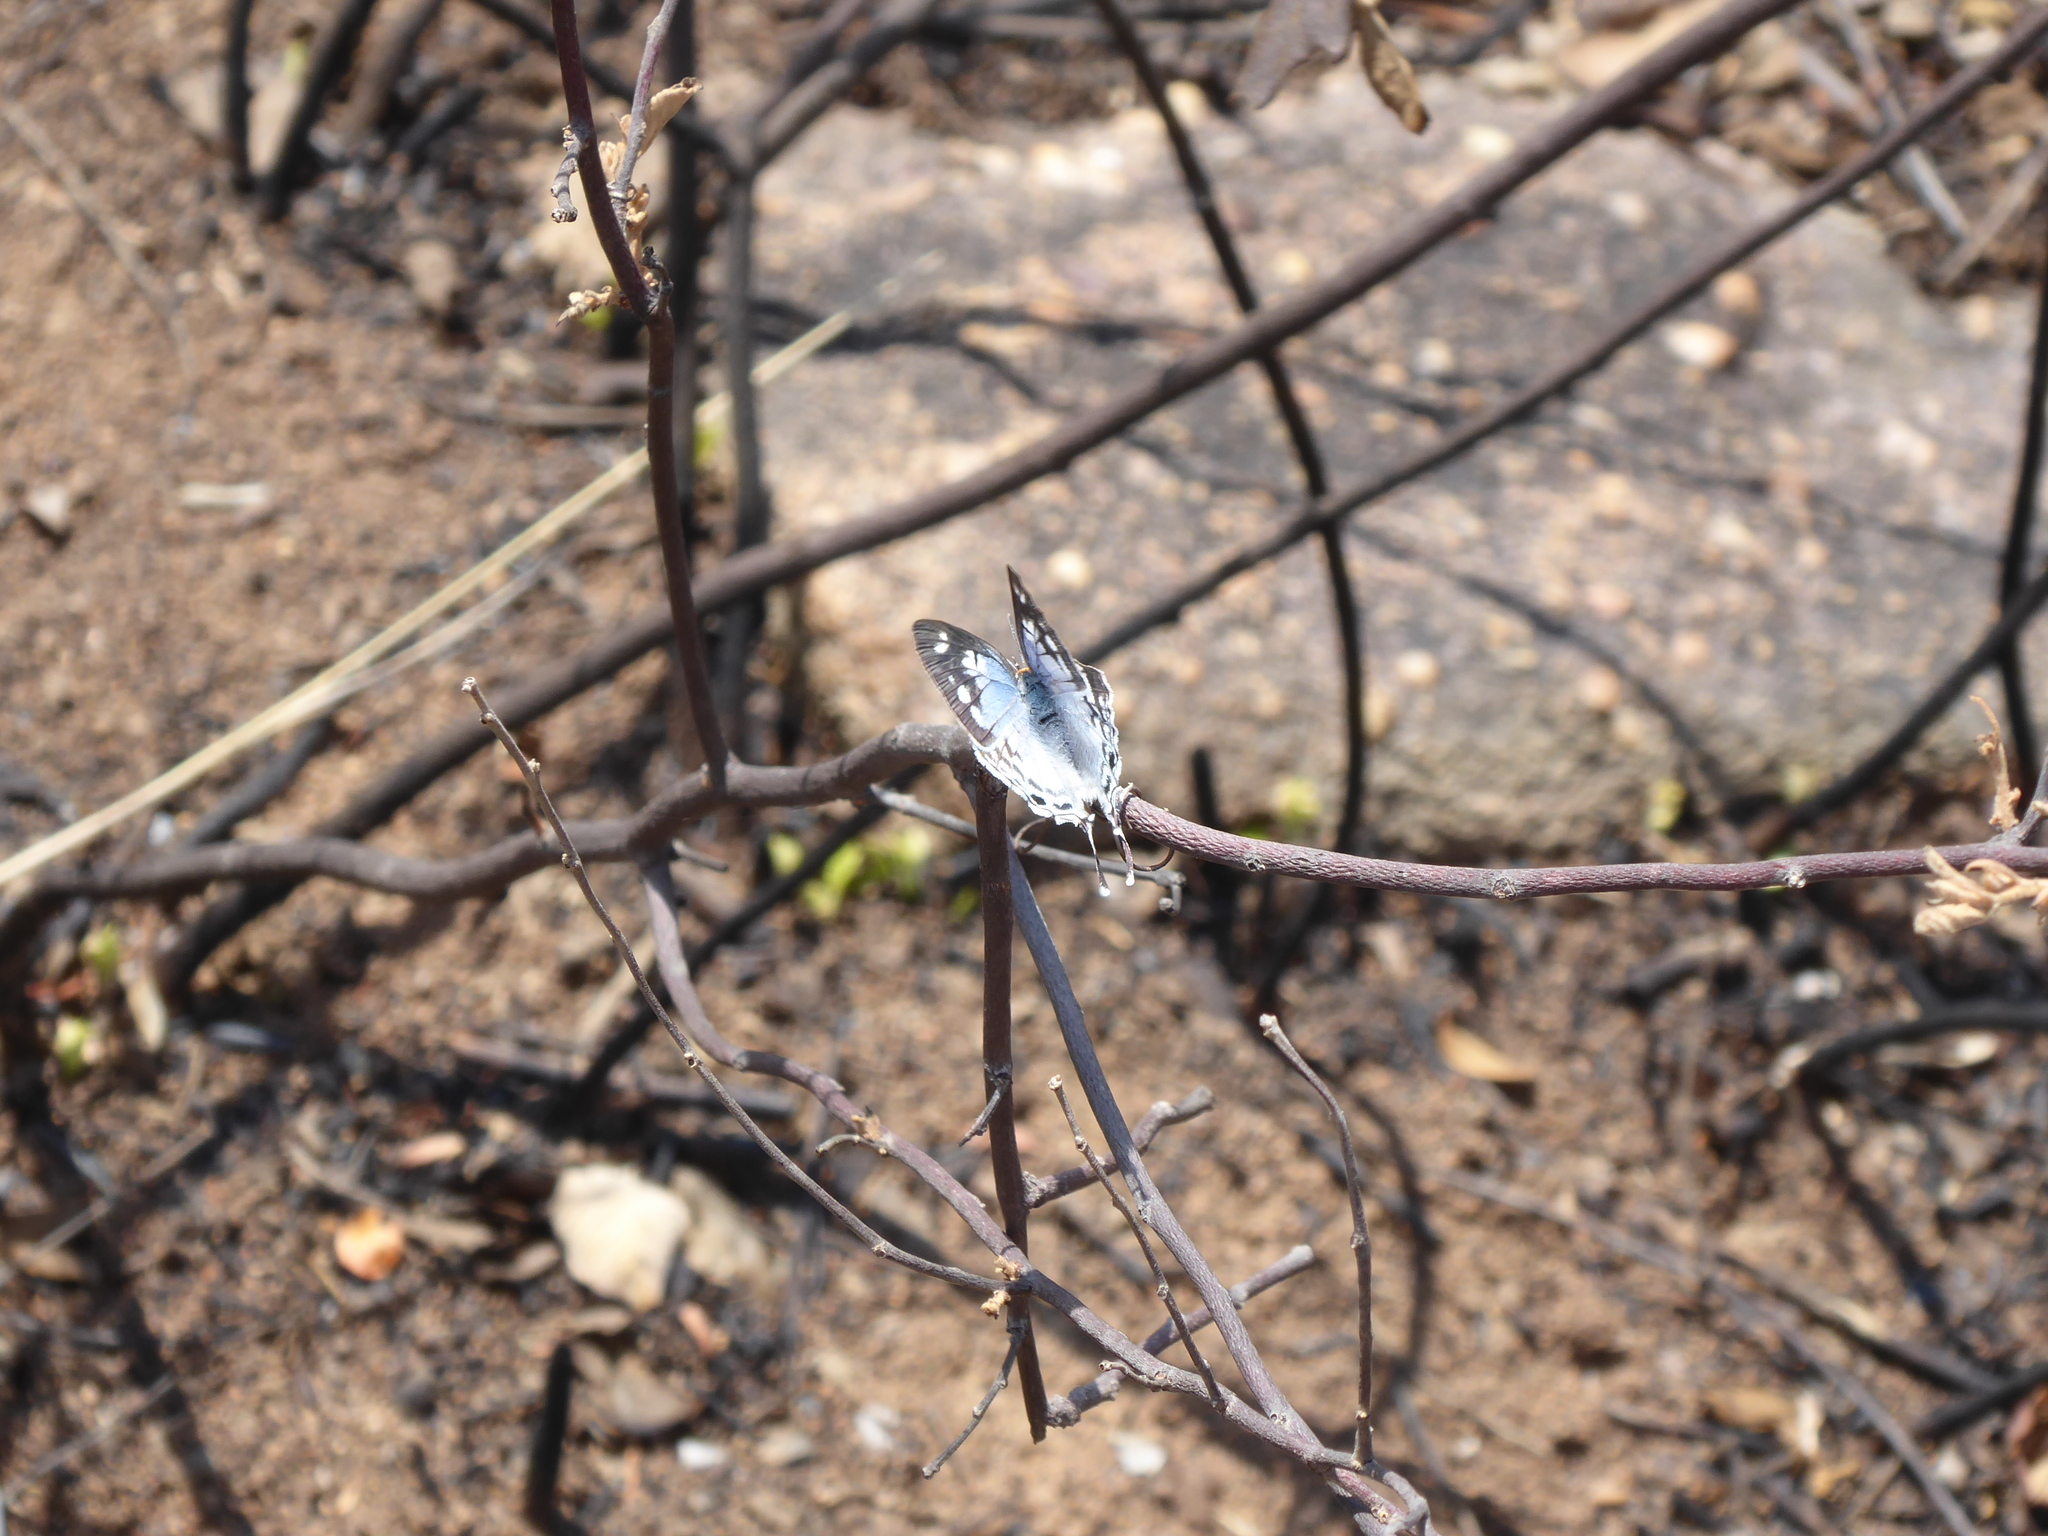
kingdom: Animalia
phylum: Arthropoda
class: Insecta
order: Lepidoptera
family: Lycaenidae
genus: Stugeta
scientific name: Stugeta bowkeri
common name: Bowker's marbled sapphire
